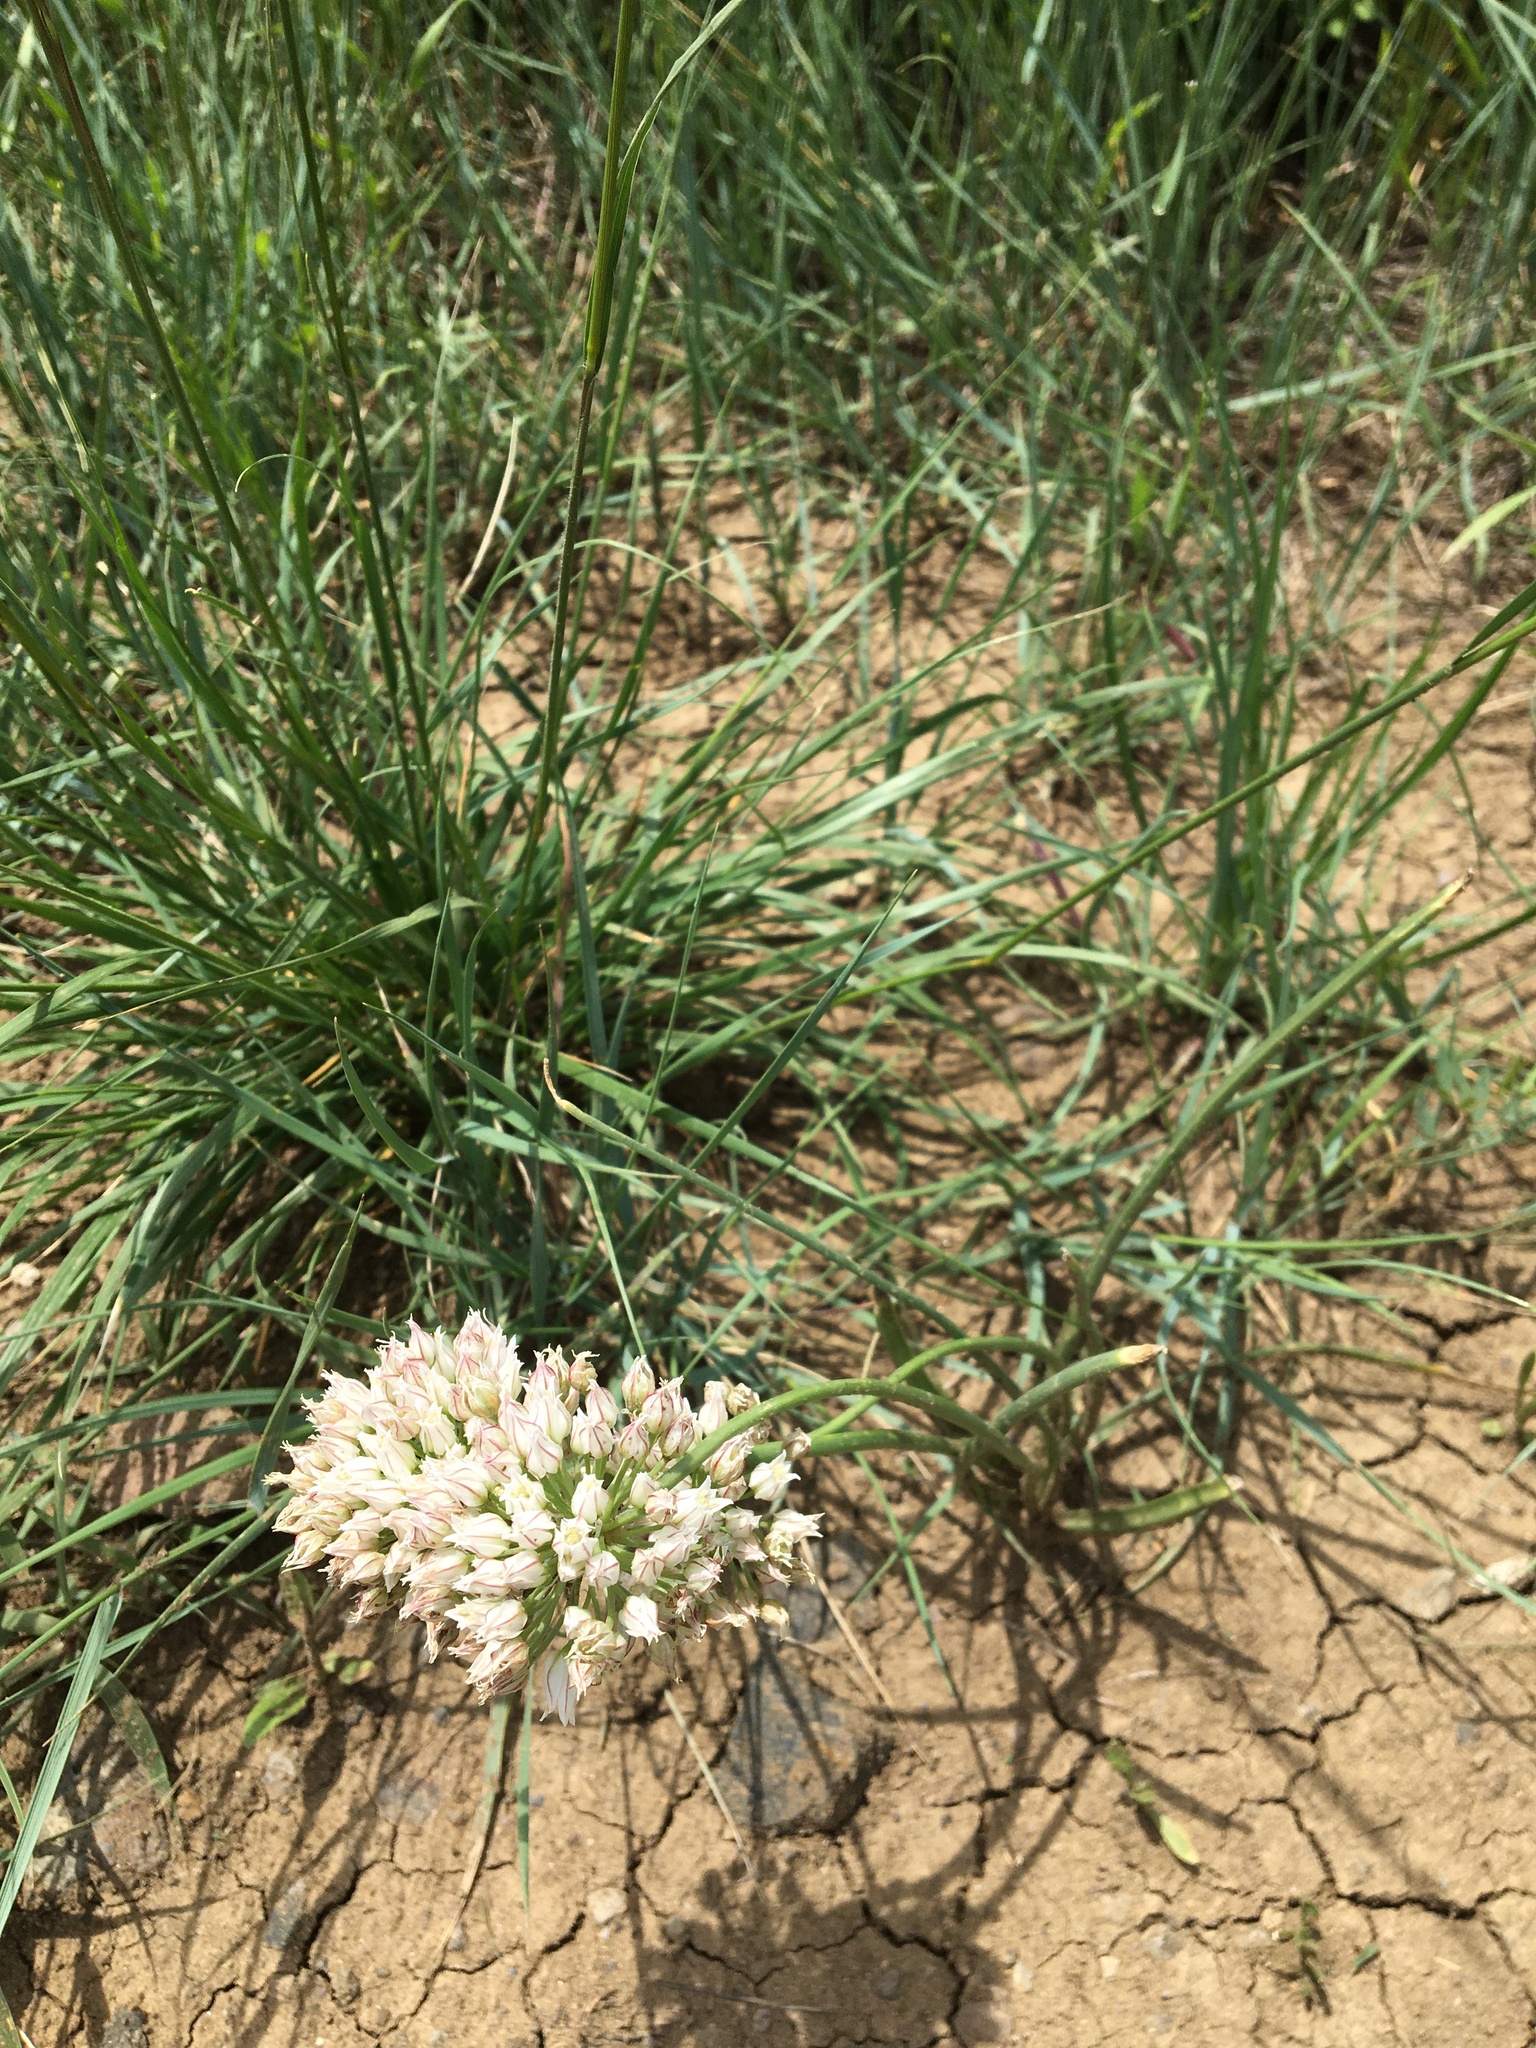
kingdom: Plantae
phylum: Tracheophyta
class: Liliopsida
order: Asparagales
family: Amaryllidaceae
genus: Allium
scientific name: Allium textile
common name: Prairie onion
